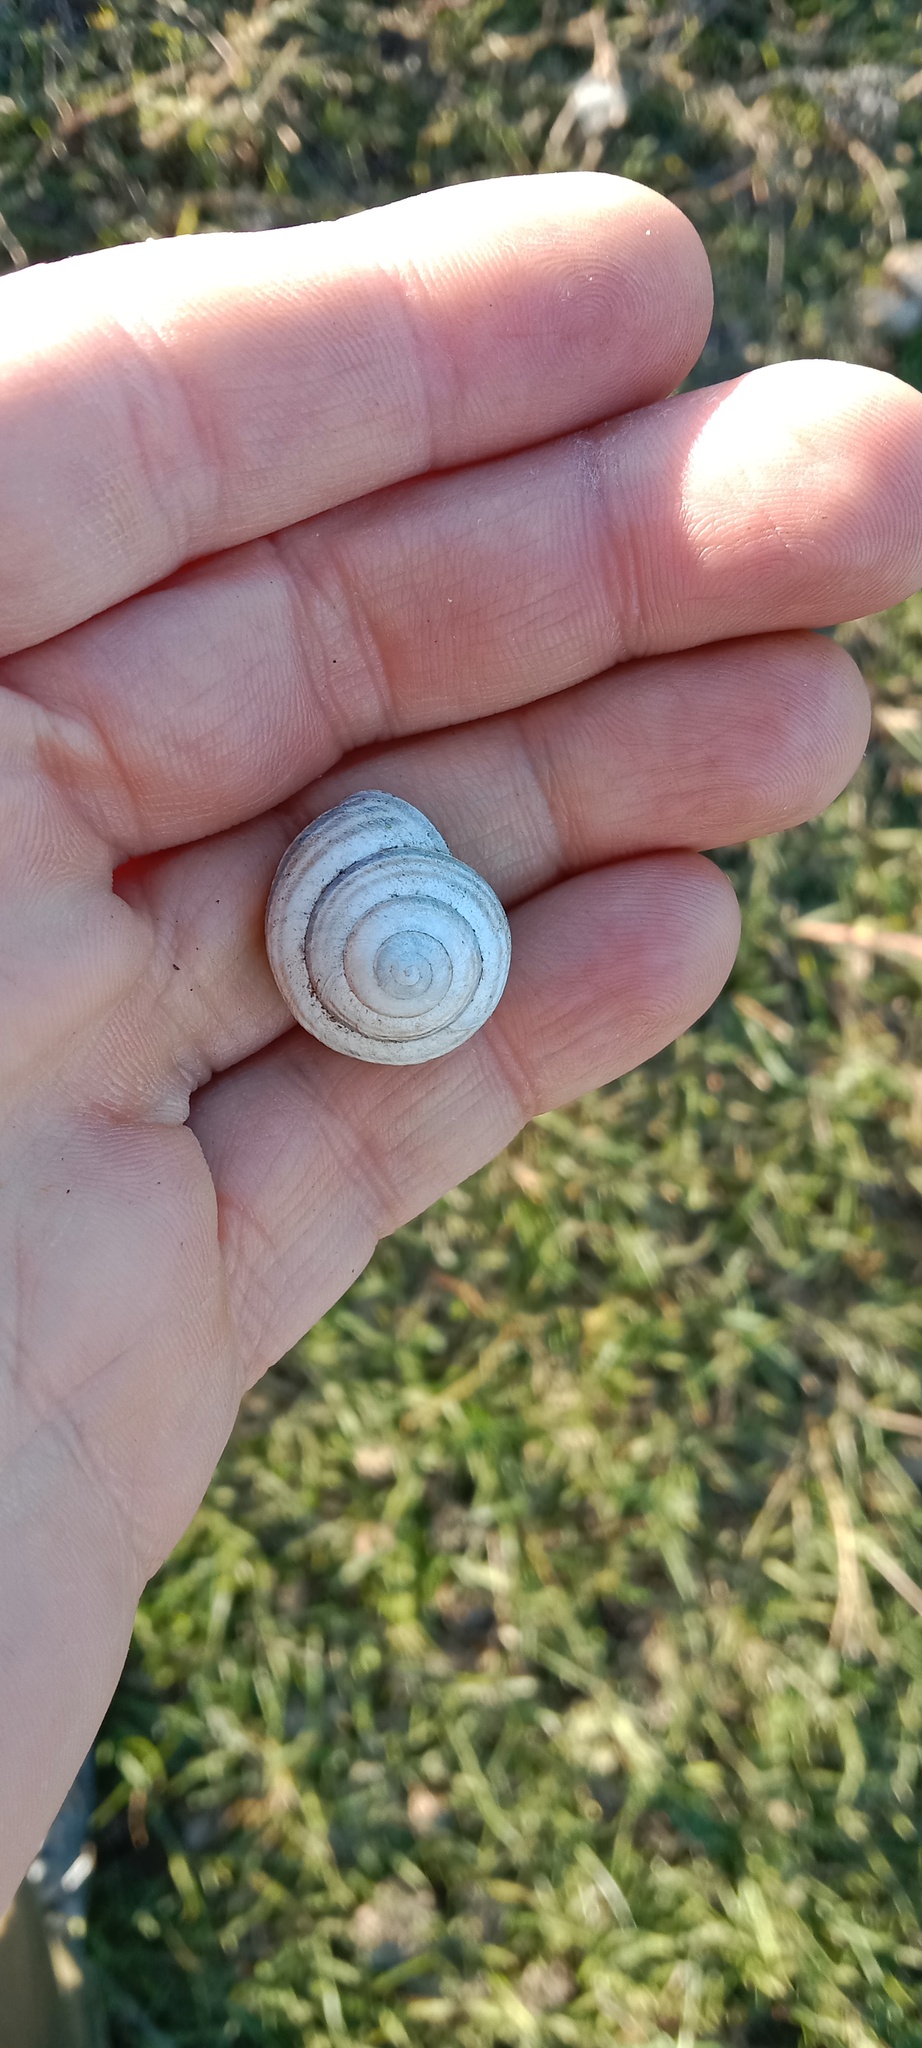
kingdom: Animalia
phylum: Mollusca
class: Gastropoda
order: Stylommatophora
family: Helicidae
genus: Caucasotachea
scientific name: Caucasotachea vindobonensis
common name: European helicid land snail
